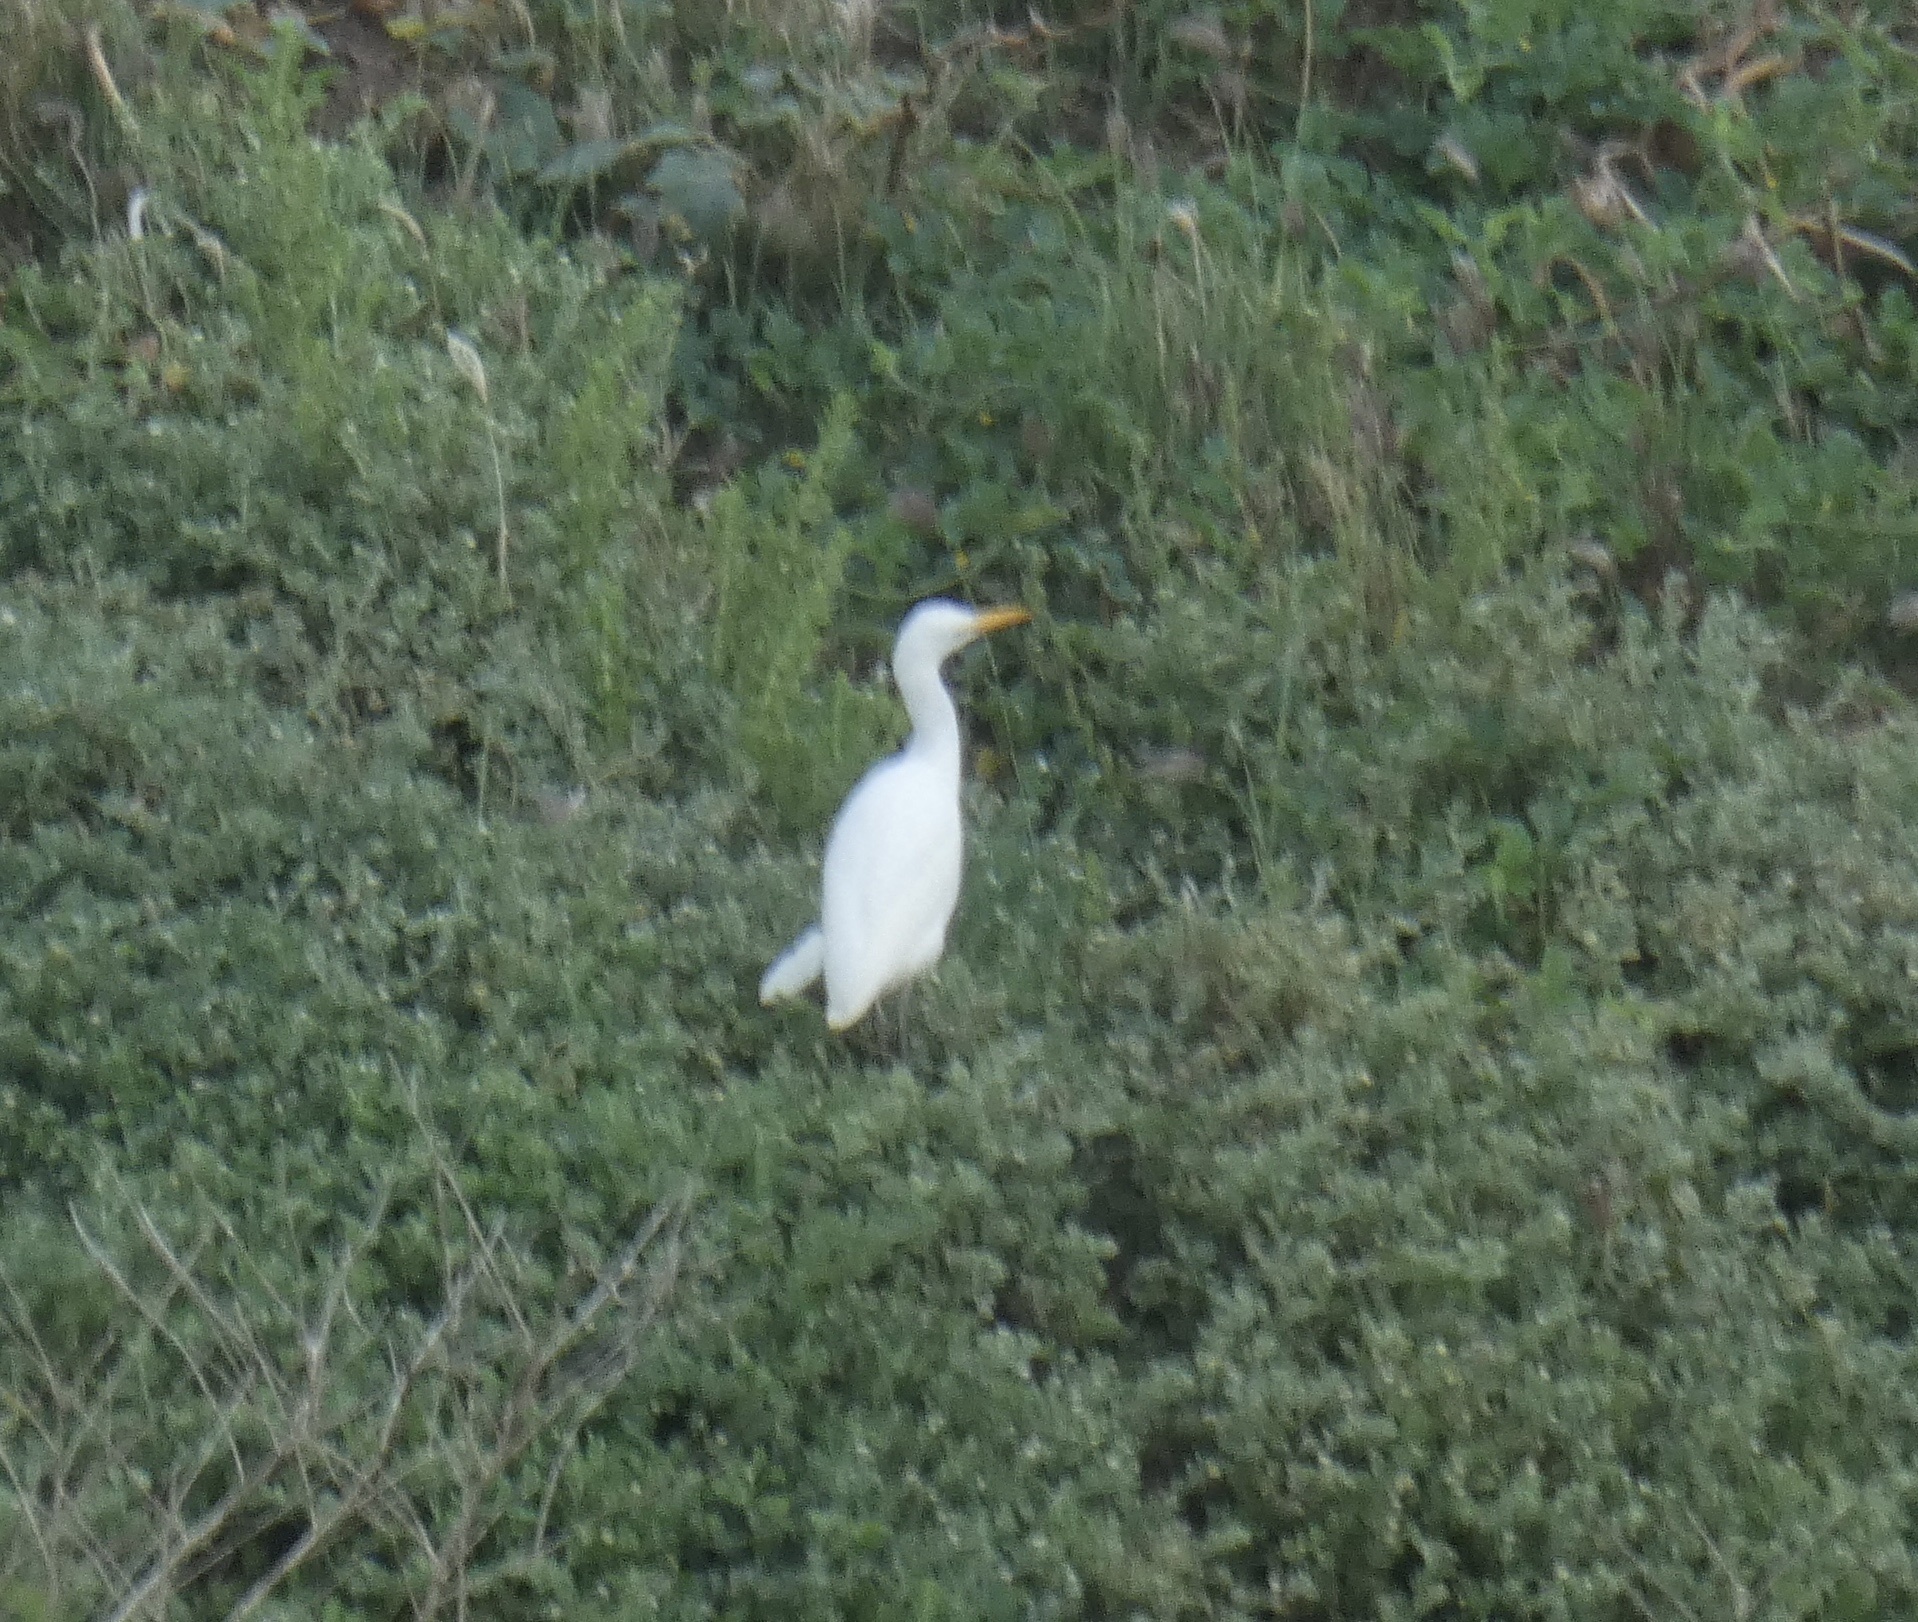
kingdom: Animalia
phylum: Chordata
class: Aves
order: Pelecaniformes
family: Ardeidae
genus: Bubulcus
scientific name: Bubulcus ibis
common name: Cattle egret
